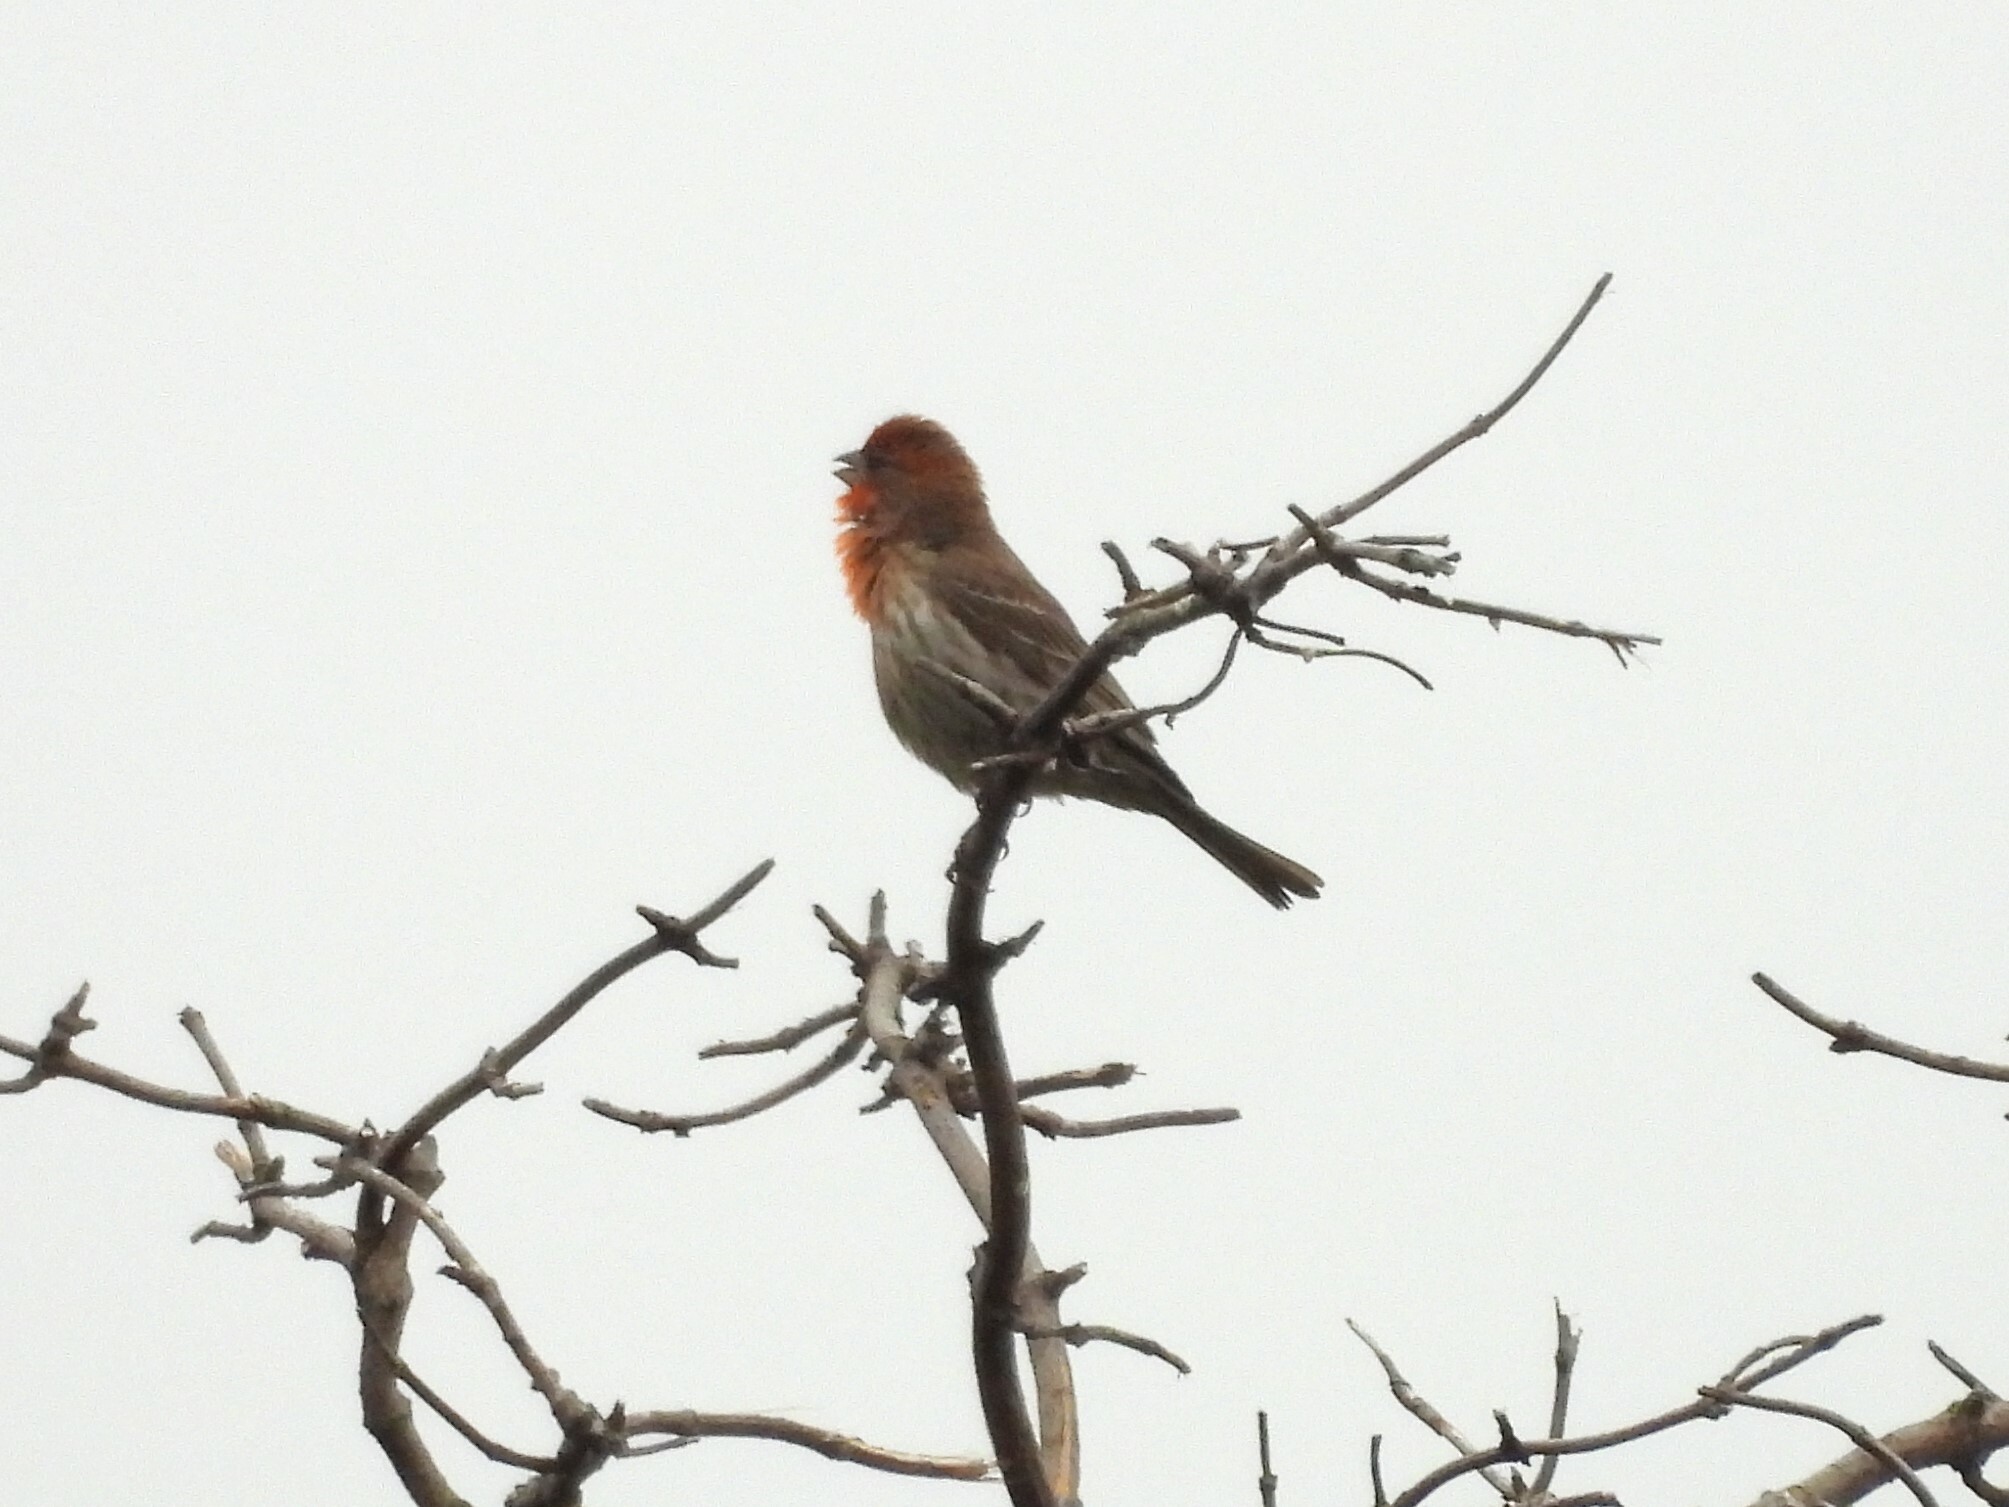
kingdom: Animalia
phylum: Chordata
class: Aves
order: Passeriformes
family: Fringillidae
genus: Haemorhous
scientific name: Haemorhous mexicanus
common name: House finch
